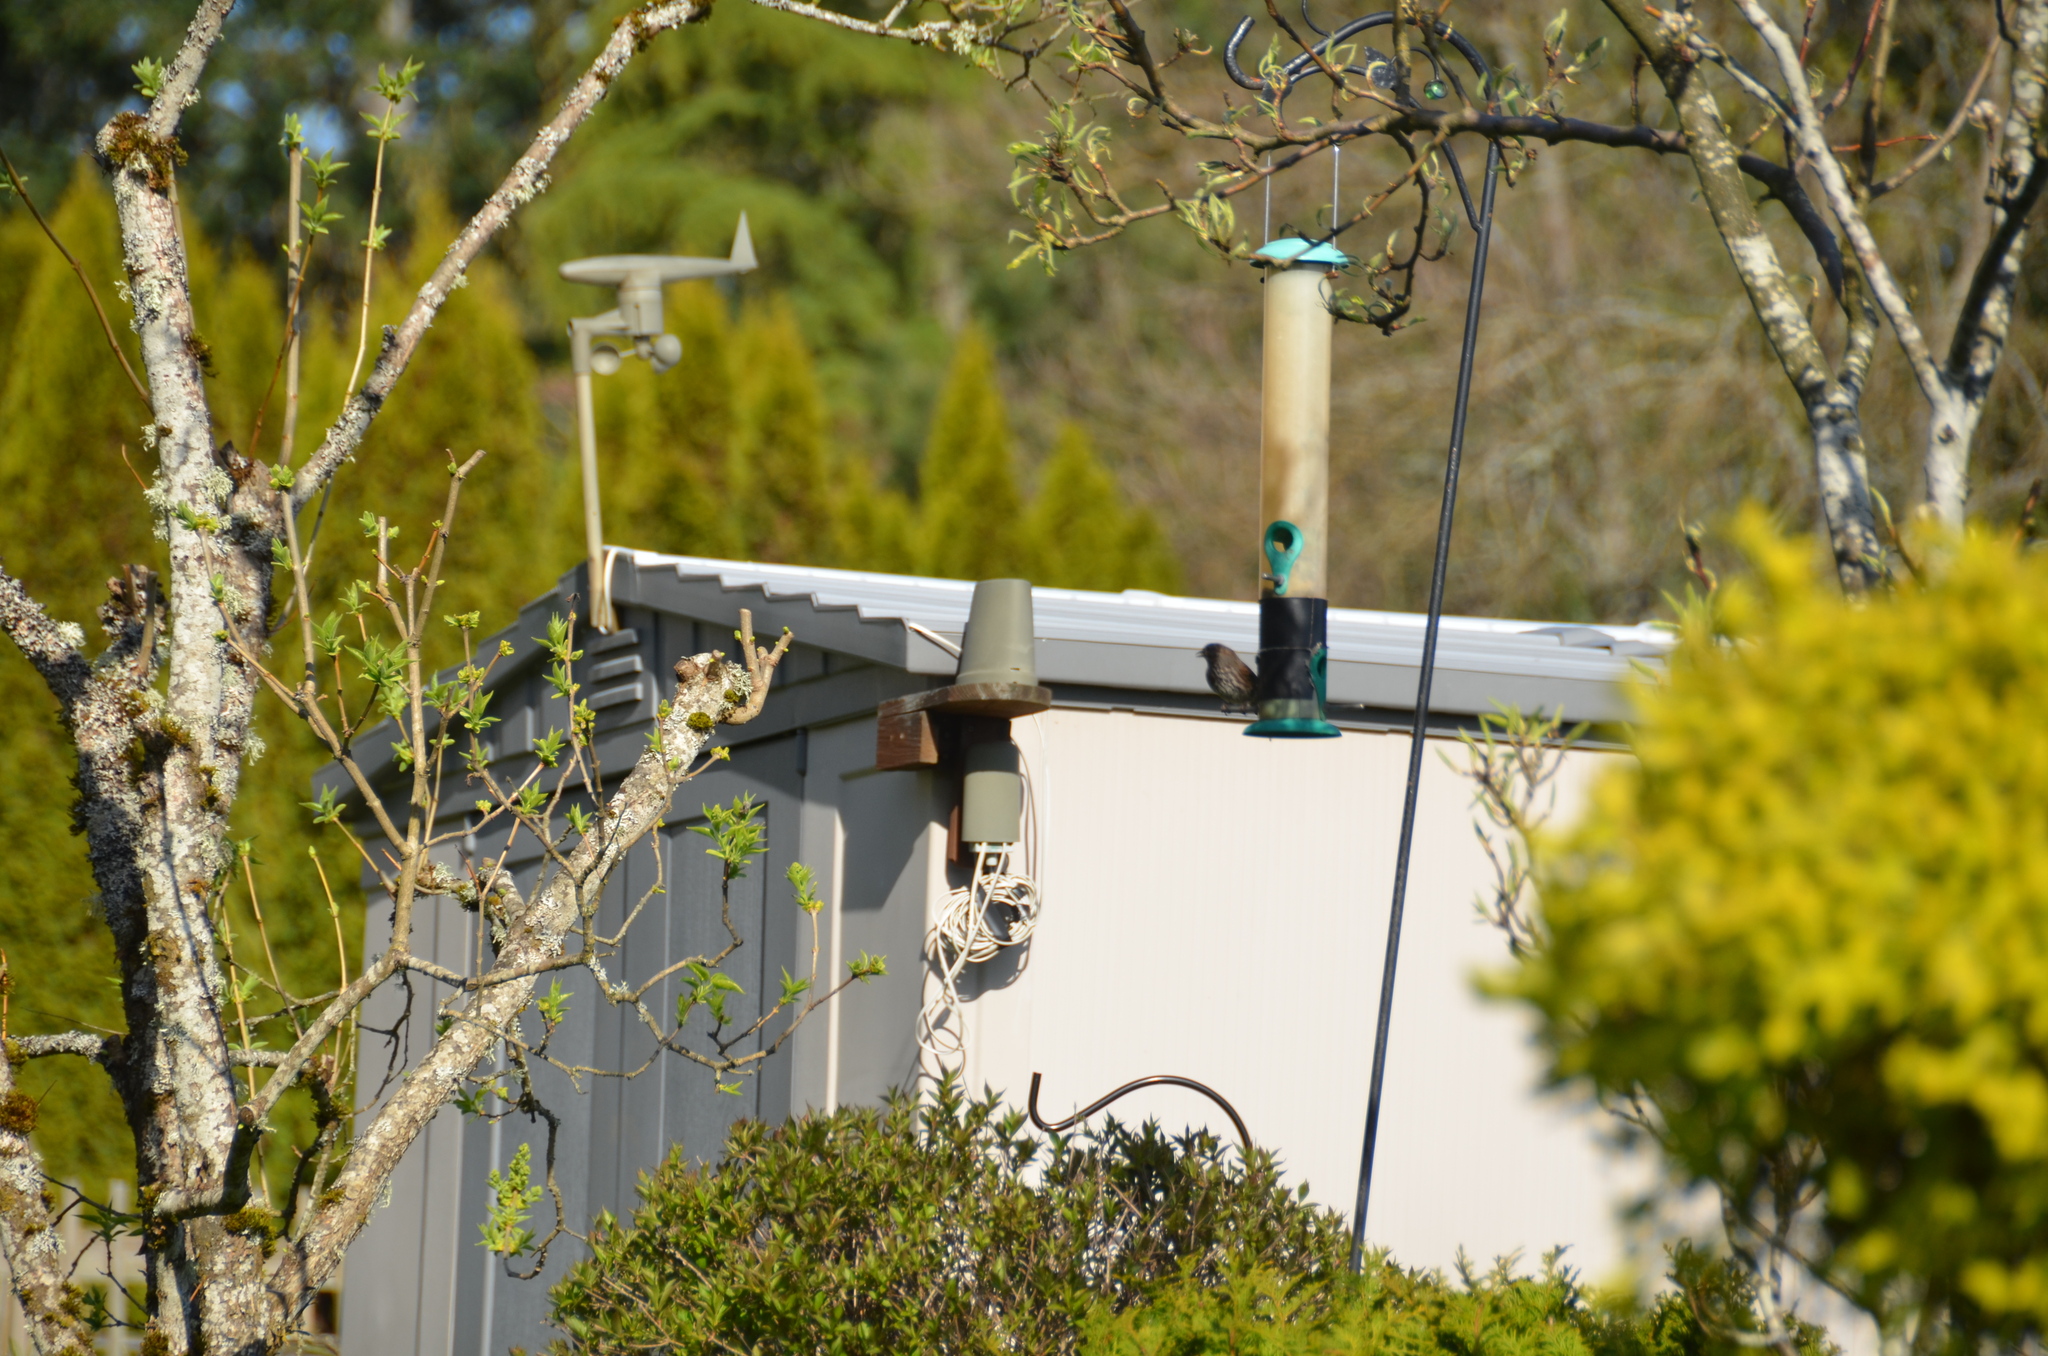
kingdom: Animalia
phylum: Chordata
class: Aves
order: Passeriformes
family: Passerellidae
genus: Melospiza
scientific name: Melospiza melodia
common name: Song sparrow
